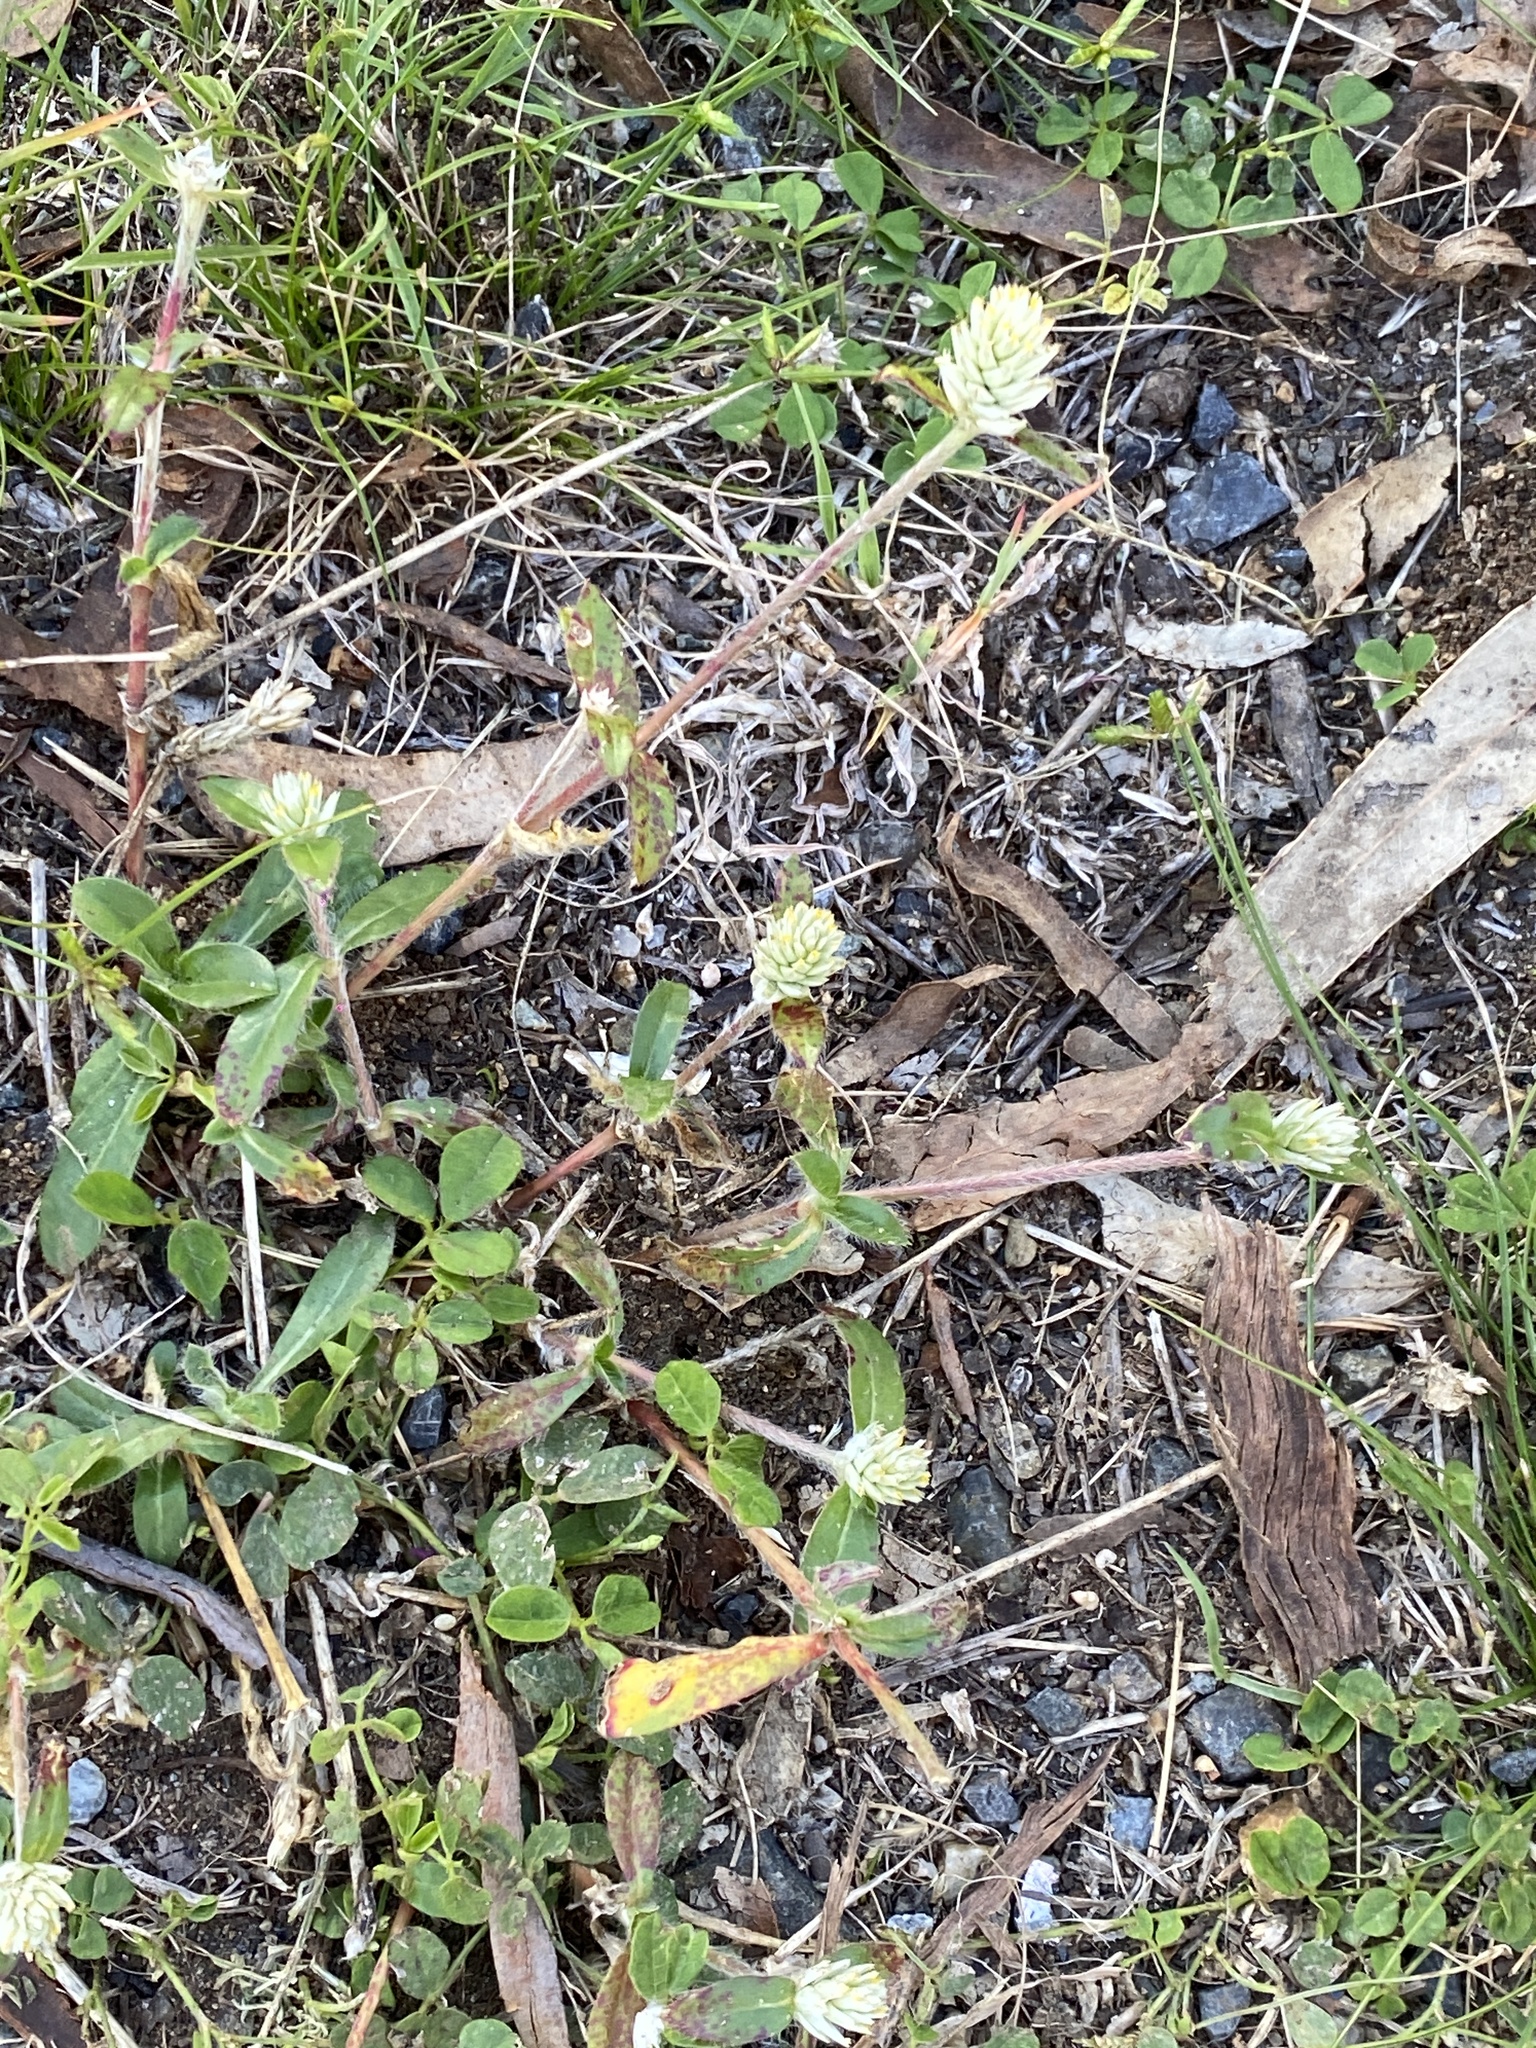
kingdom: Plantae
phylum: Tracheophyta
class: Magnoliopsida
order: Caryophyllales
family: Amaranthaceae
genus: Gomphrena
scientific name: Gomphrena celosioides
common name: Gomphrena-weed
